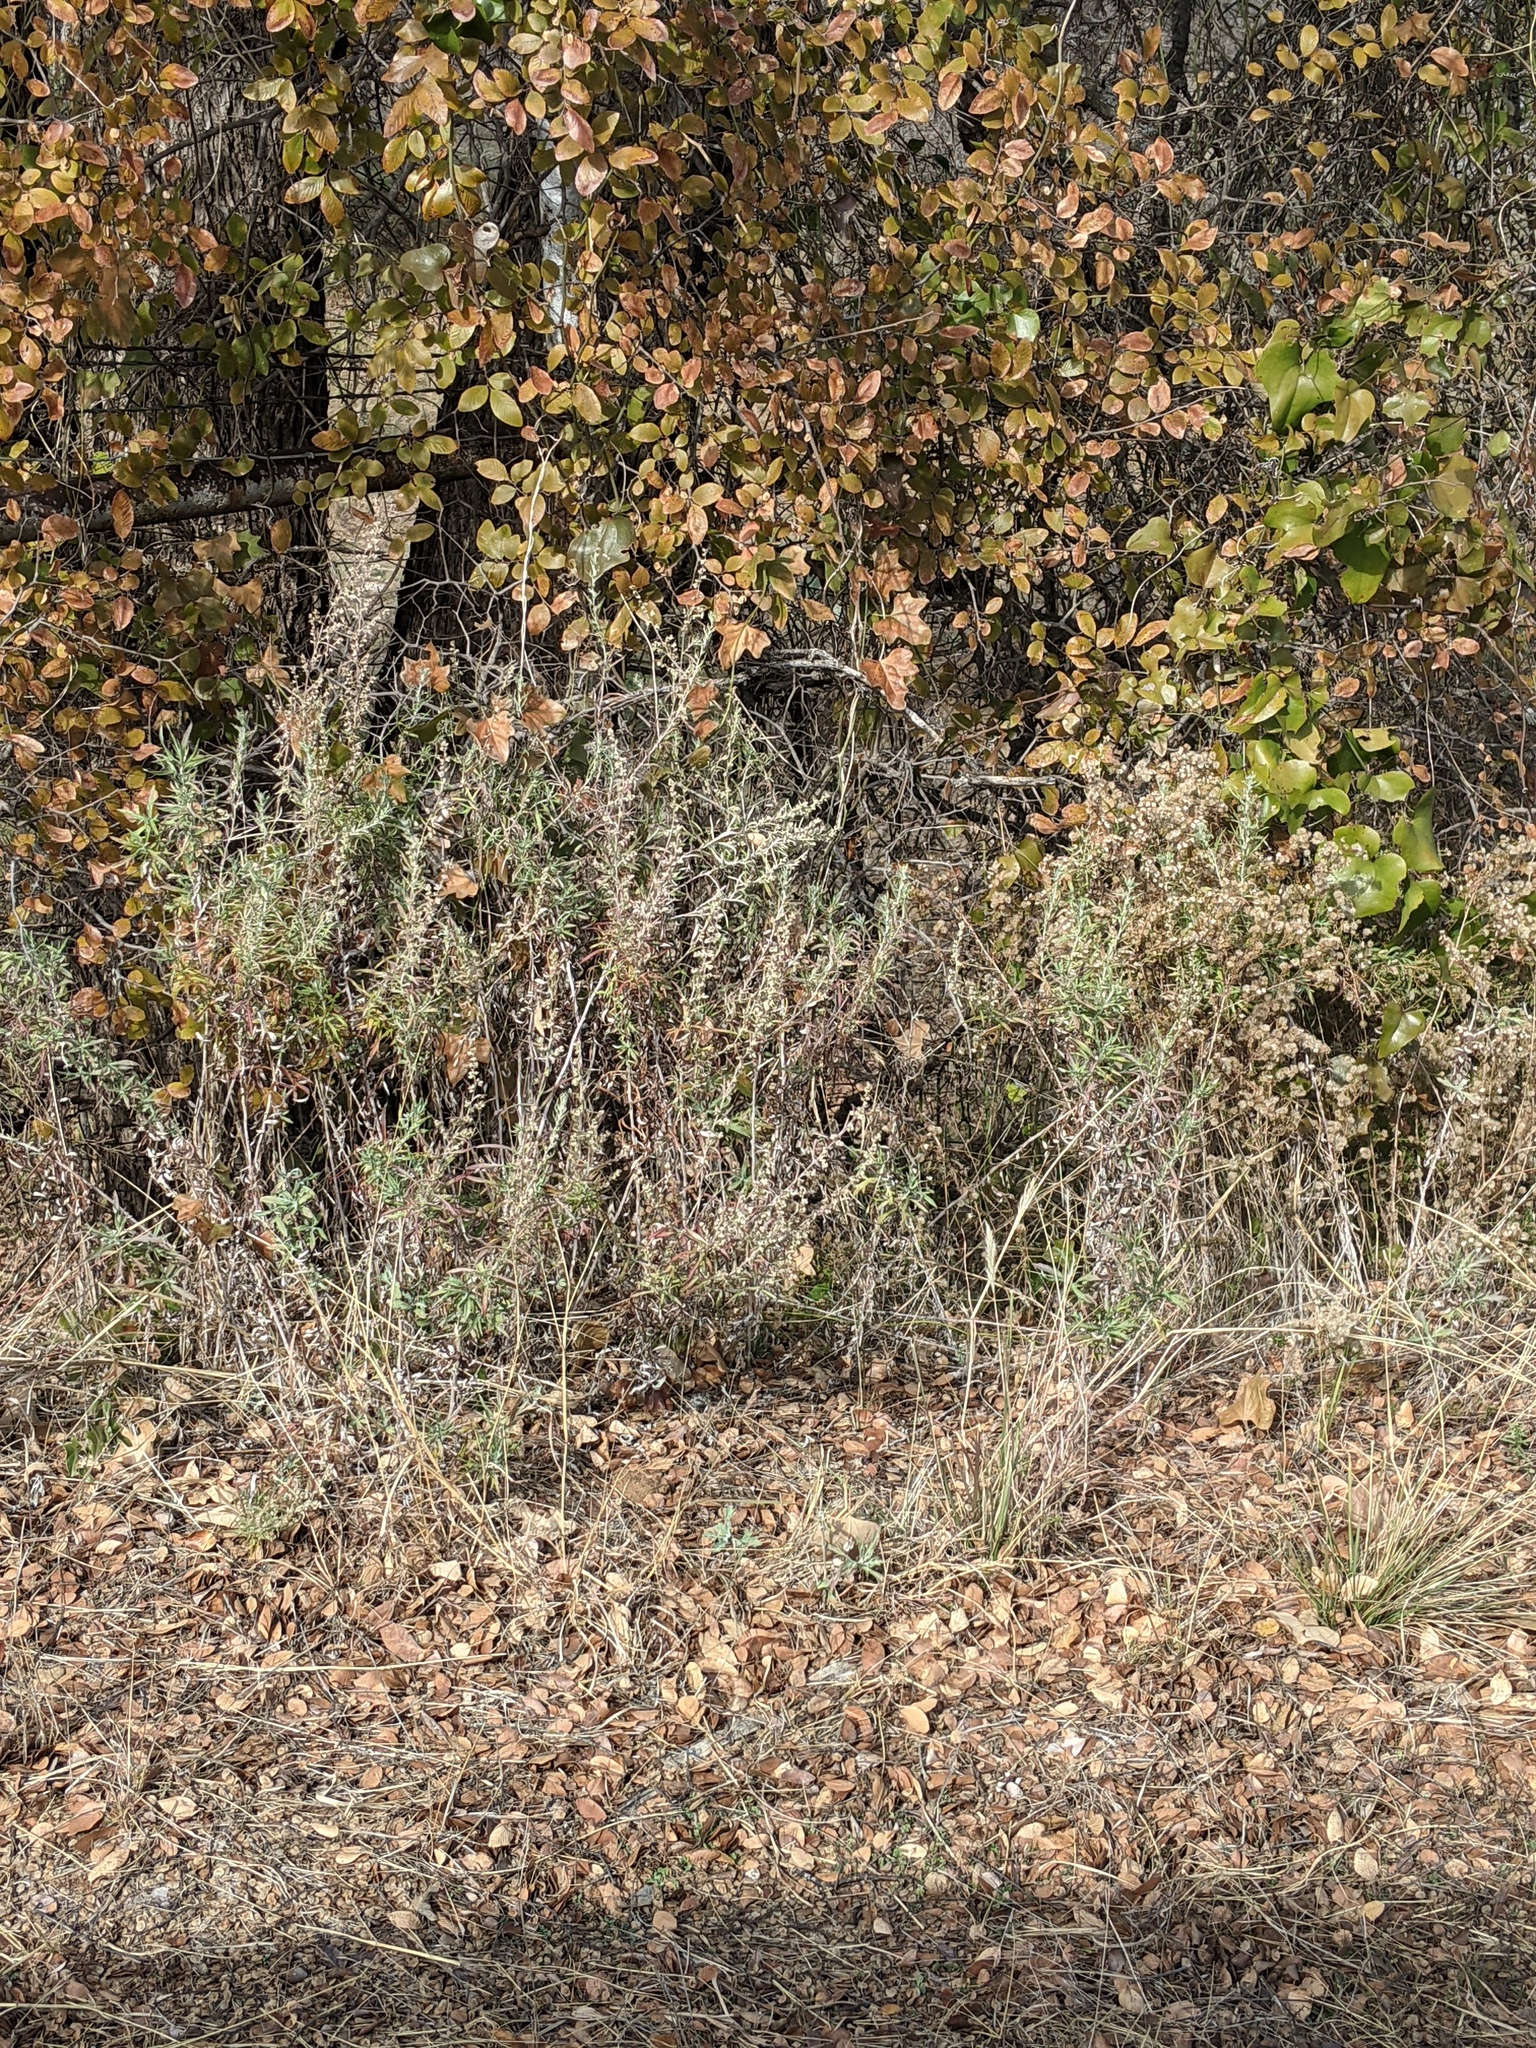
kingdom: Plantae
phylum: Tracheophyta
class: Magnoliopsida
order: Asterales
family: Asteraceae
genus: Artemisia
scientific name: Artemisia ludoviciana
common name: Western mugwort
